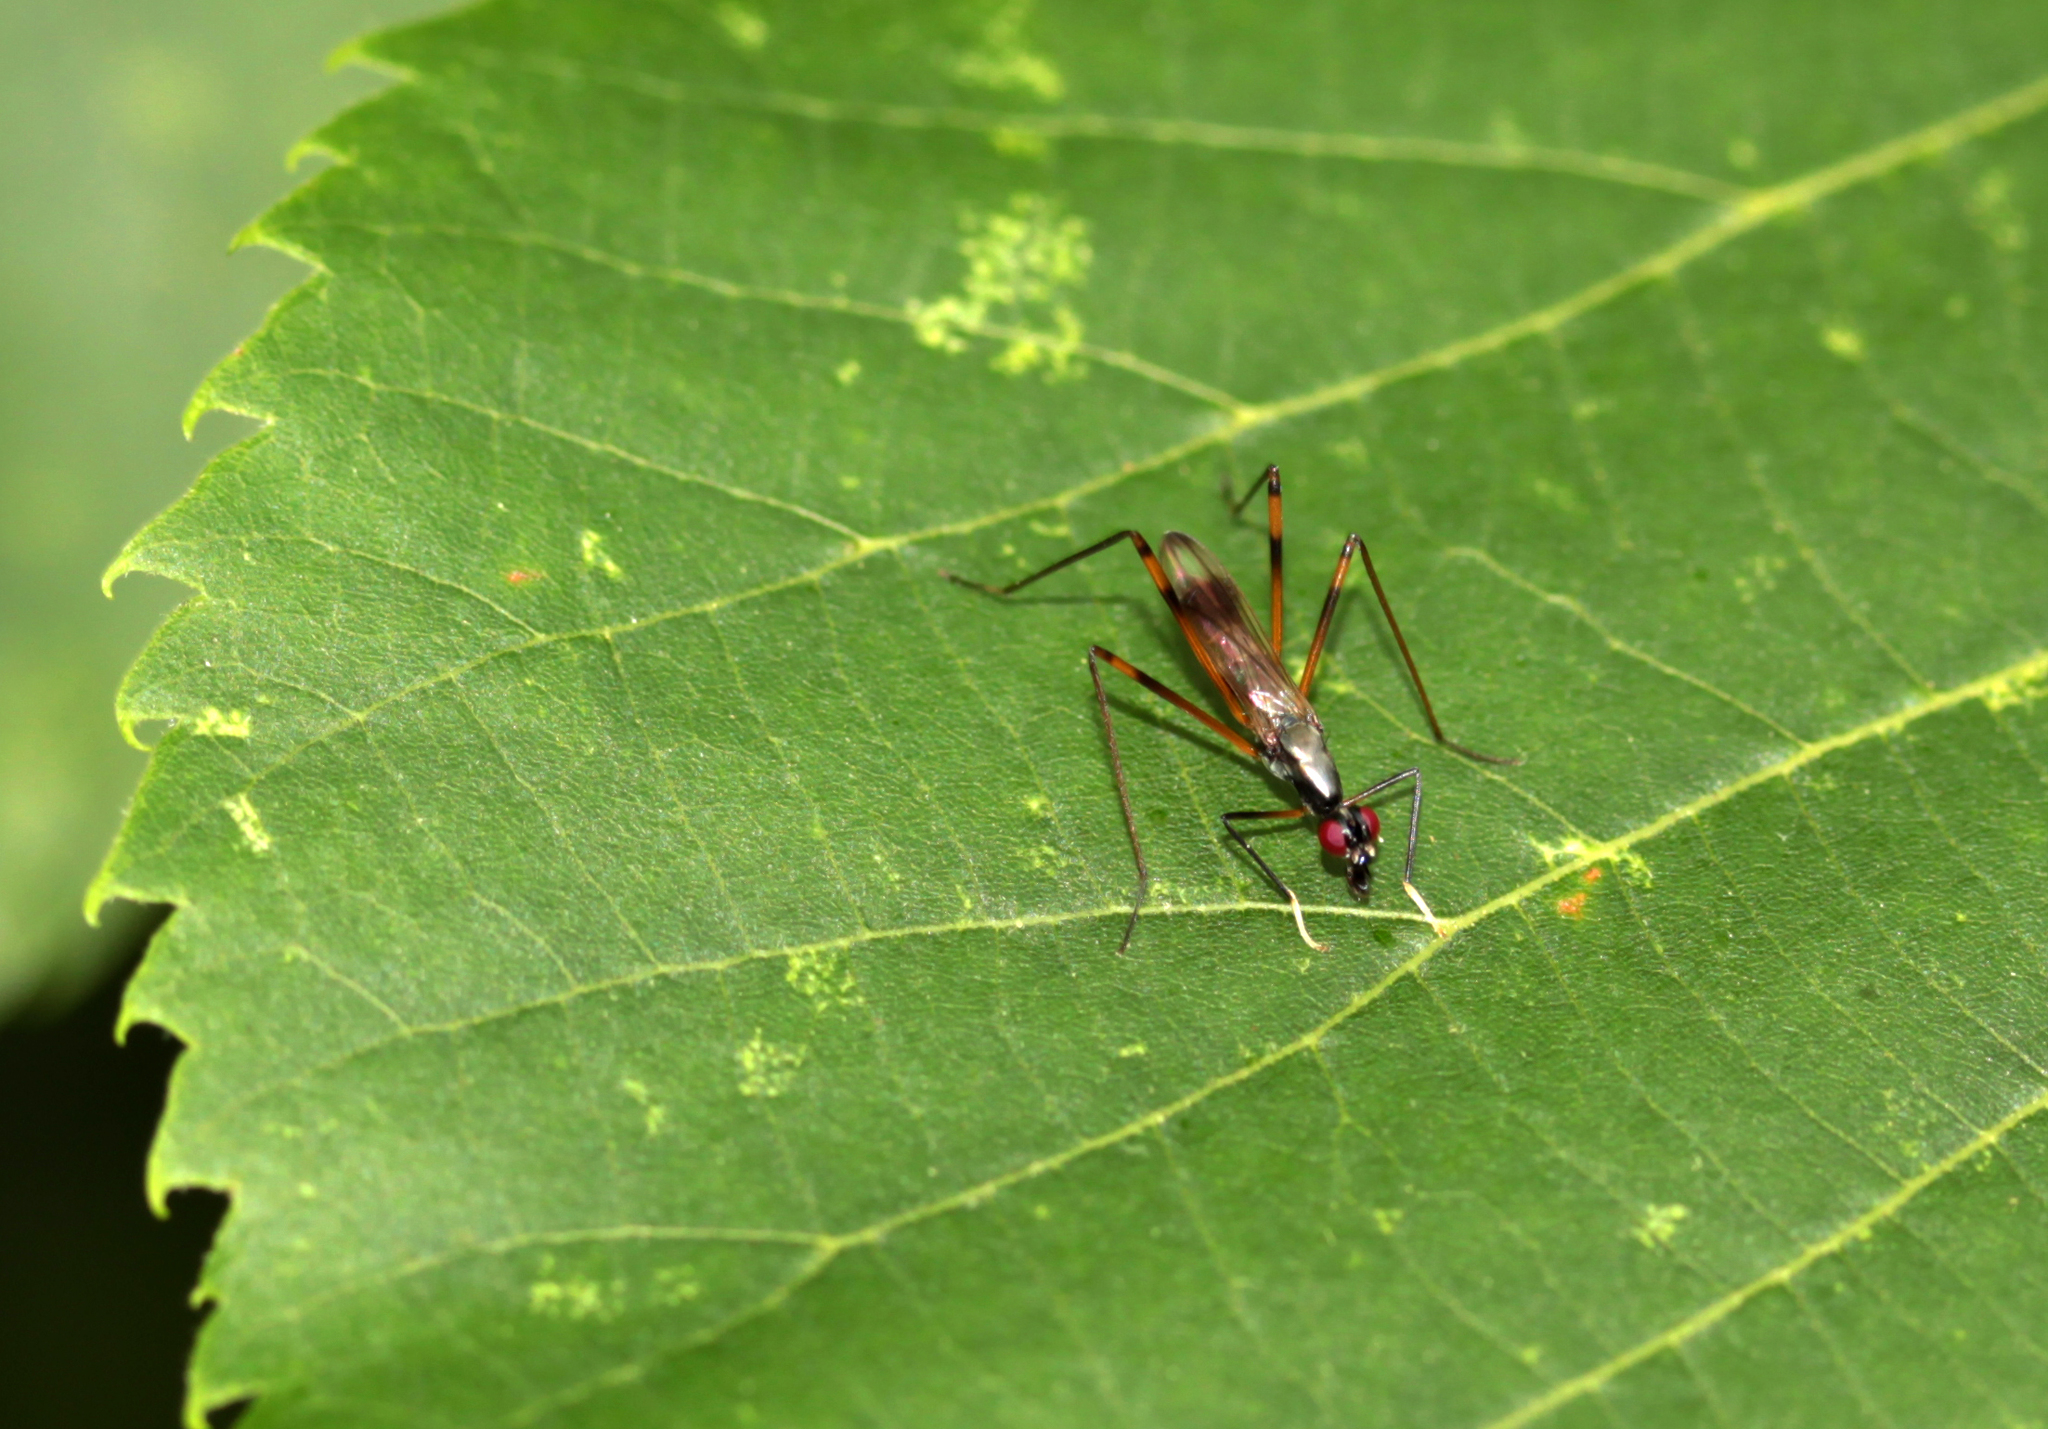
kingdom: Animalia
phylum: Arthropoda
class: Insecta
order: Diptera
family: Micropezidae
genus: Rainieria
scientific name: Rainieria antennaepes
